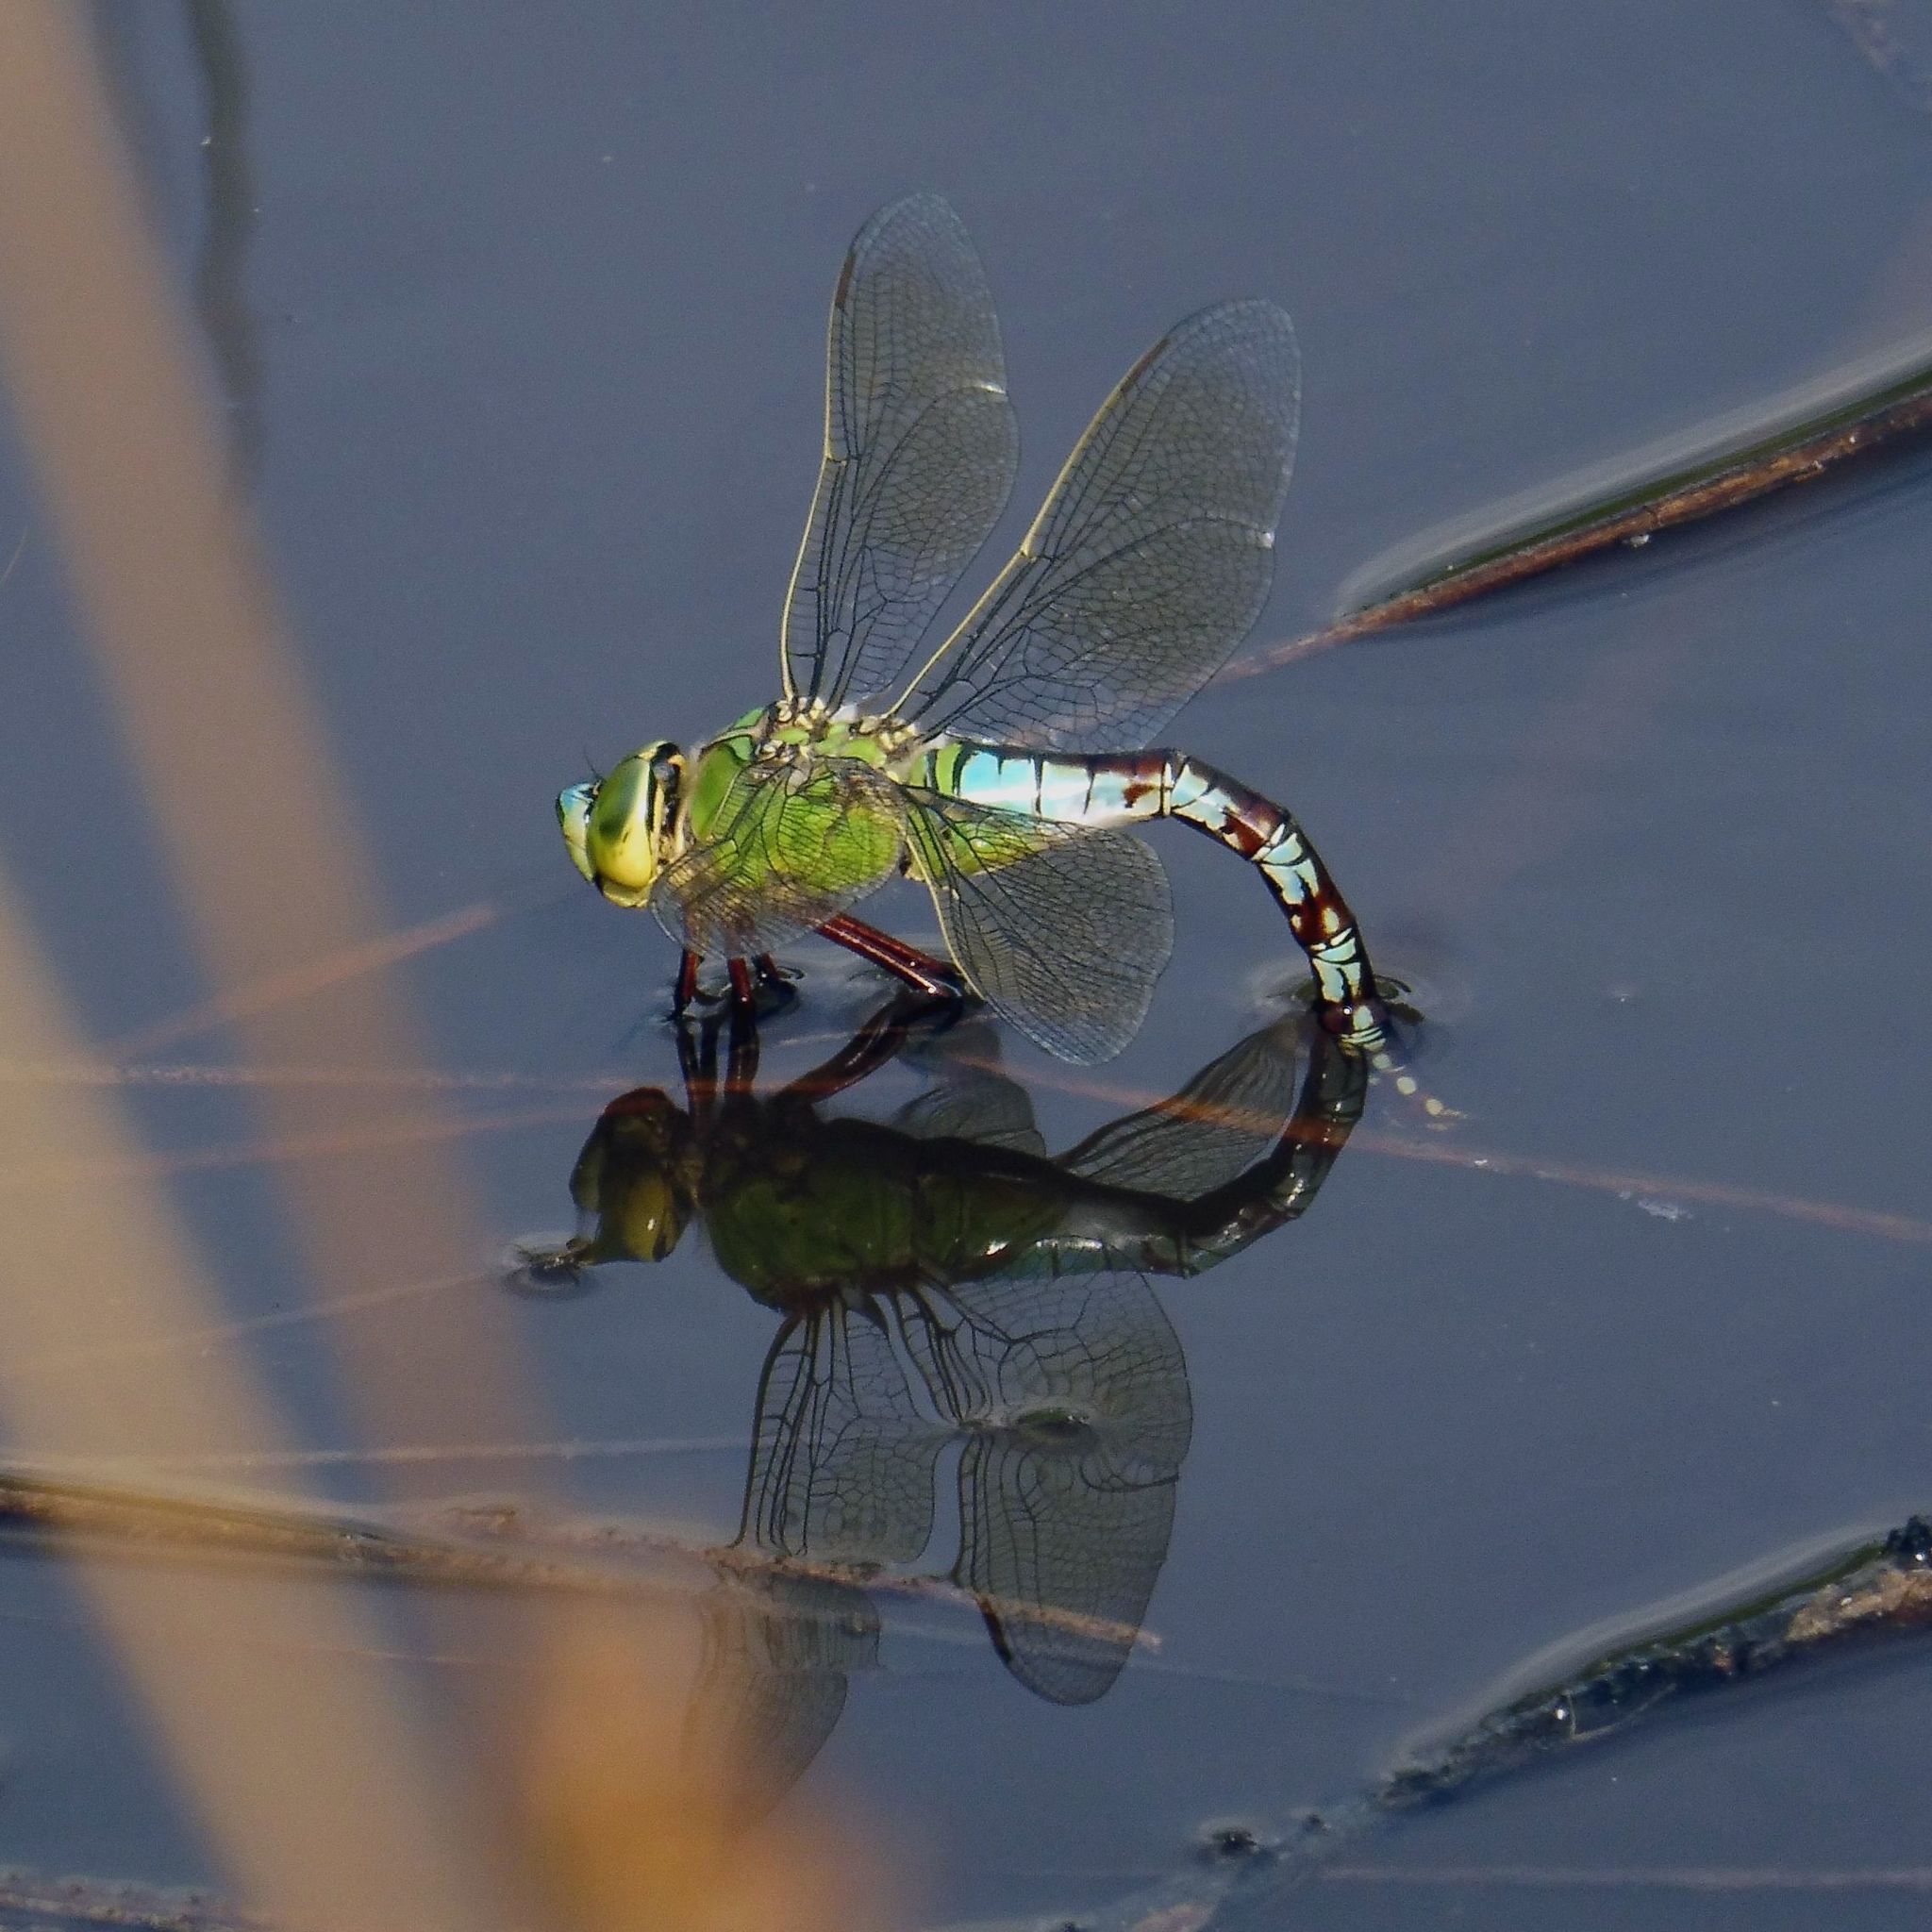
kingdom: Animalia
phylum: Arthropoda
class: Insecta
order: Odonata
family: Aeshnidae
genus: Anax
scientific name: Anax imperator
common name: Emperor dragonfly
